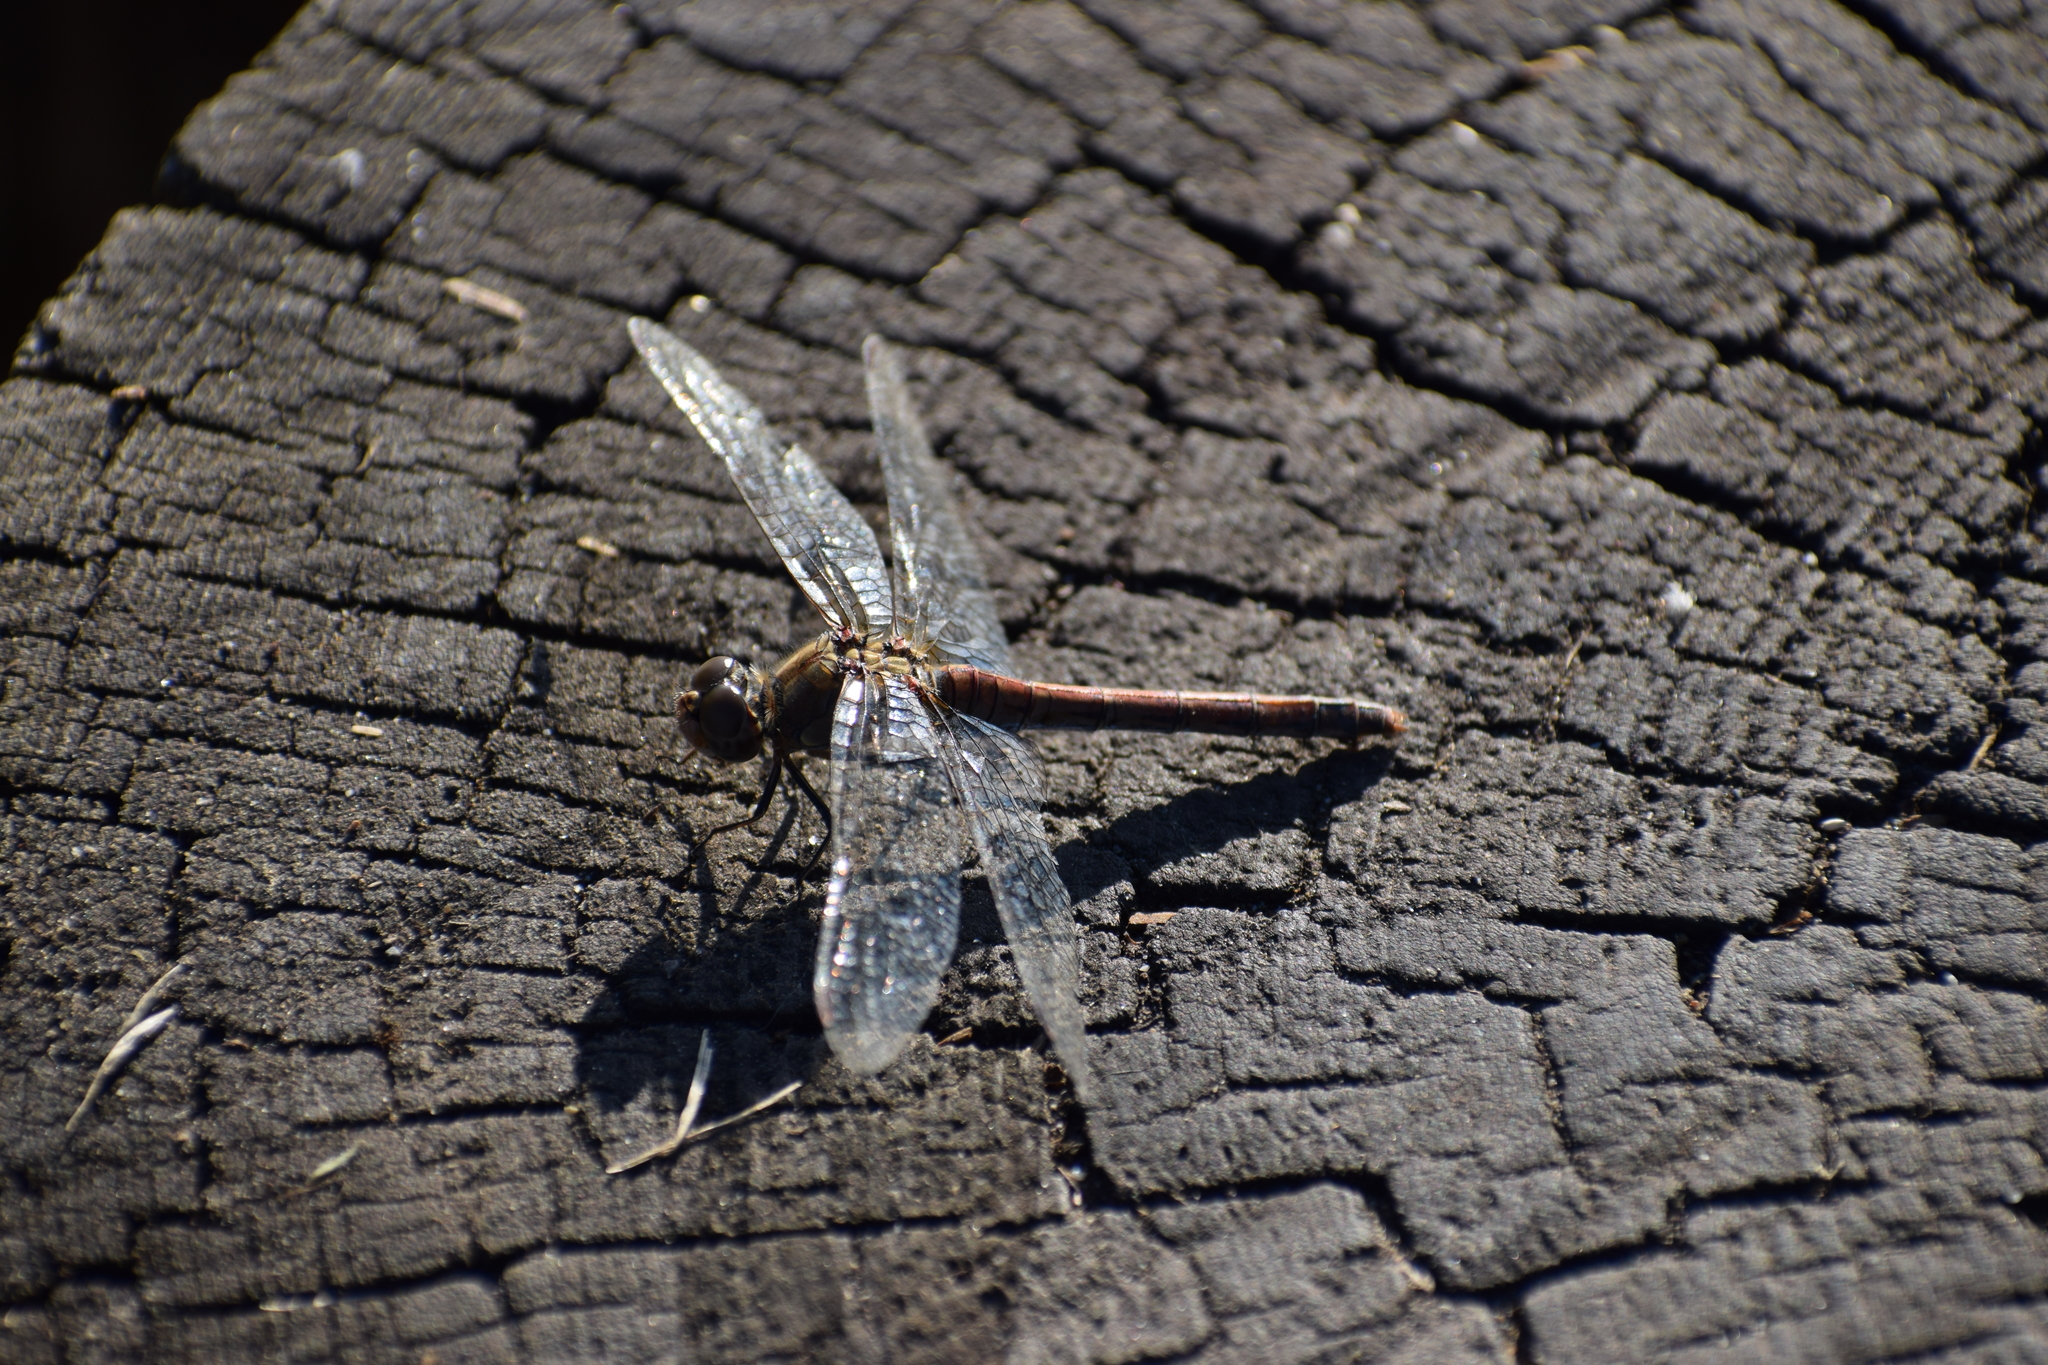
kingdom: Animalia
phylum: Arthropoda
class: Insecta
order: Odonata
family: Libellulidae
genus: Sympetrum
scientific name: Sympetrum striolatum
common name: Common darter
